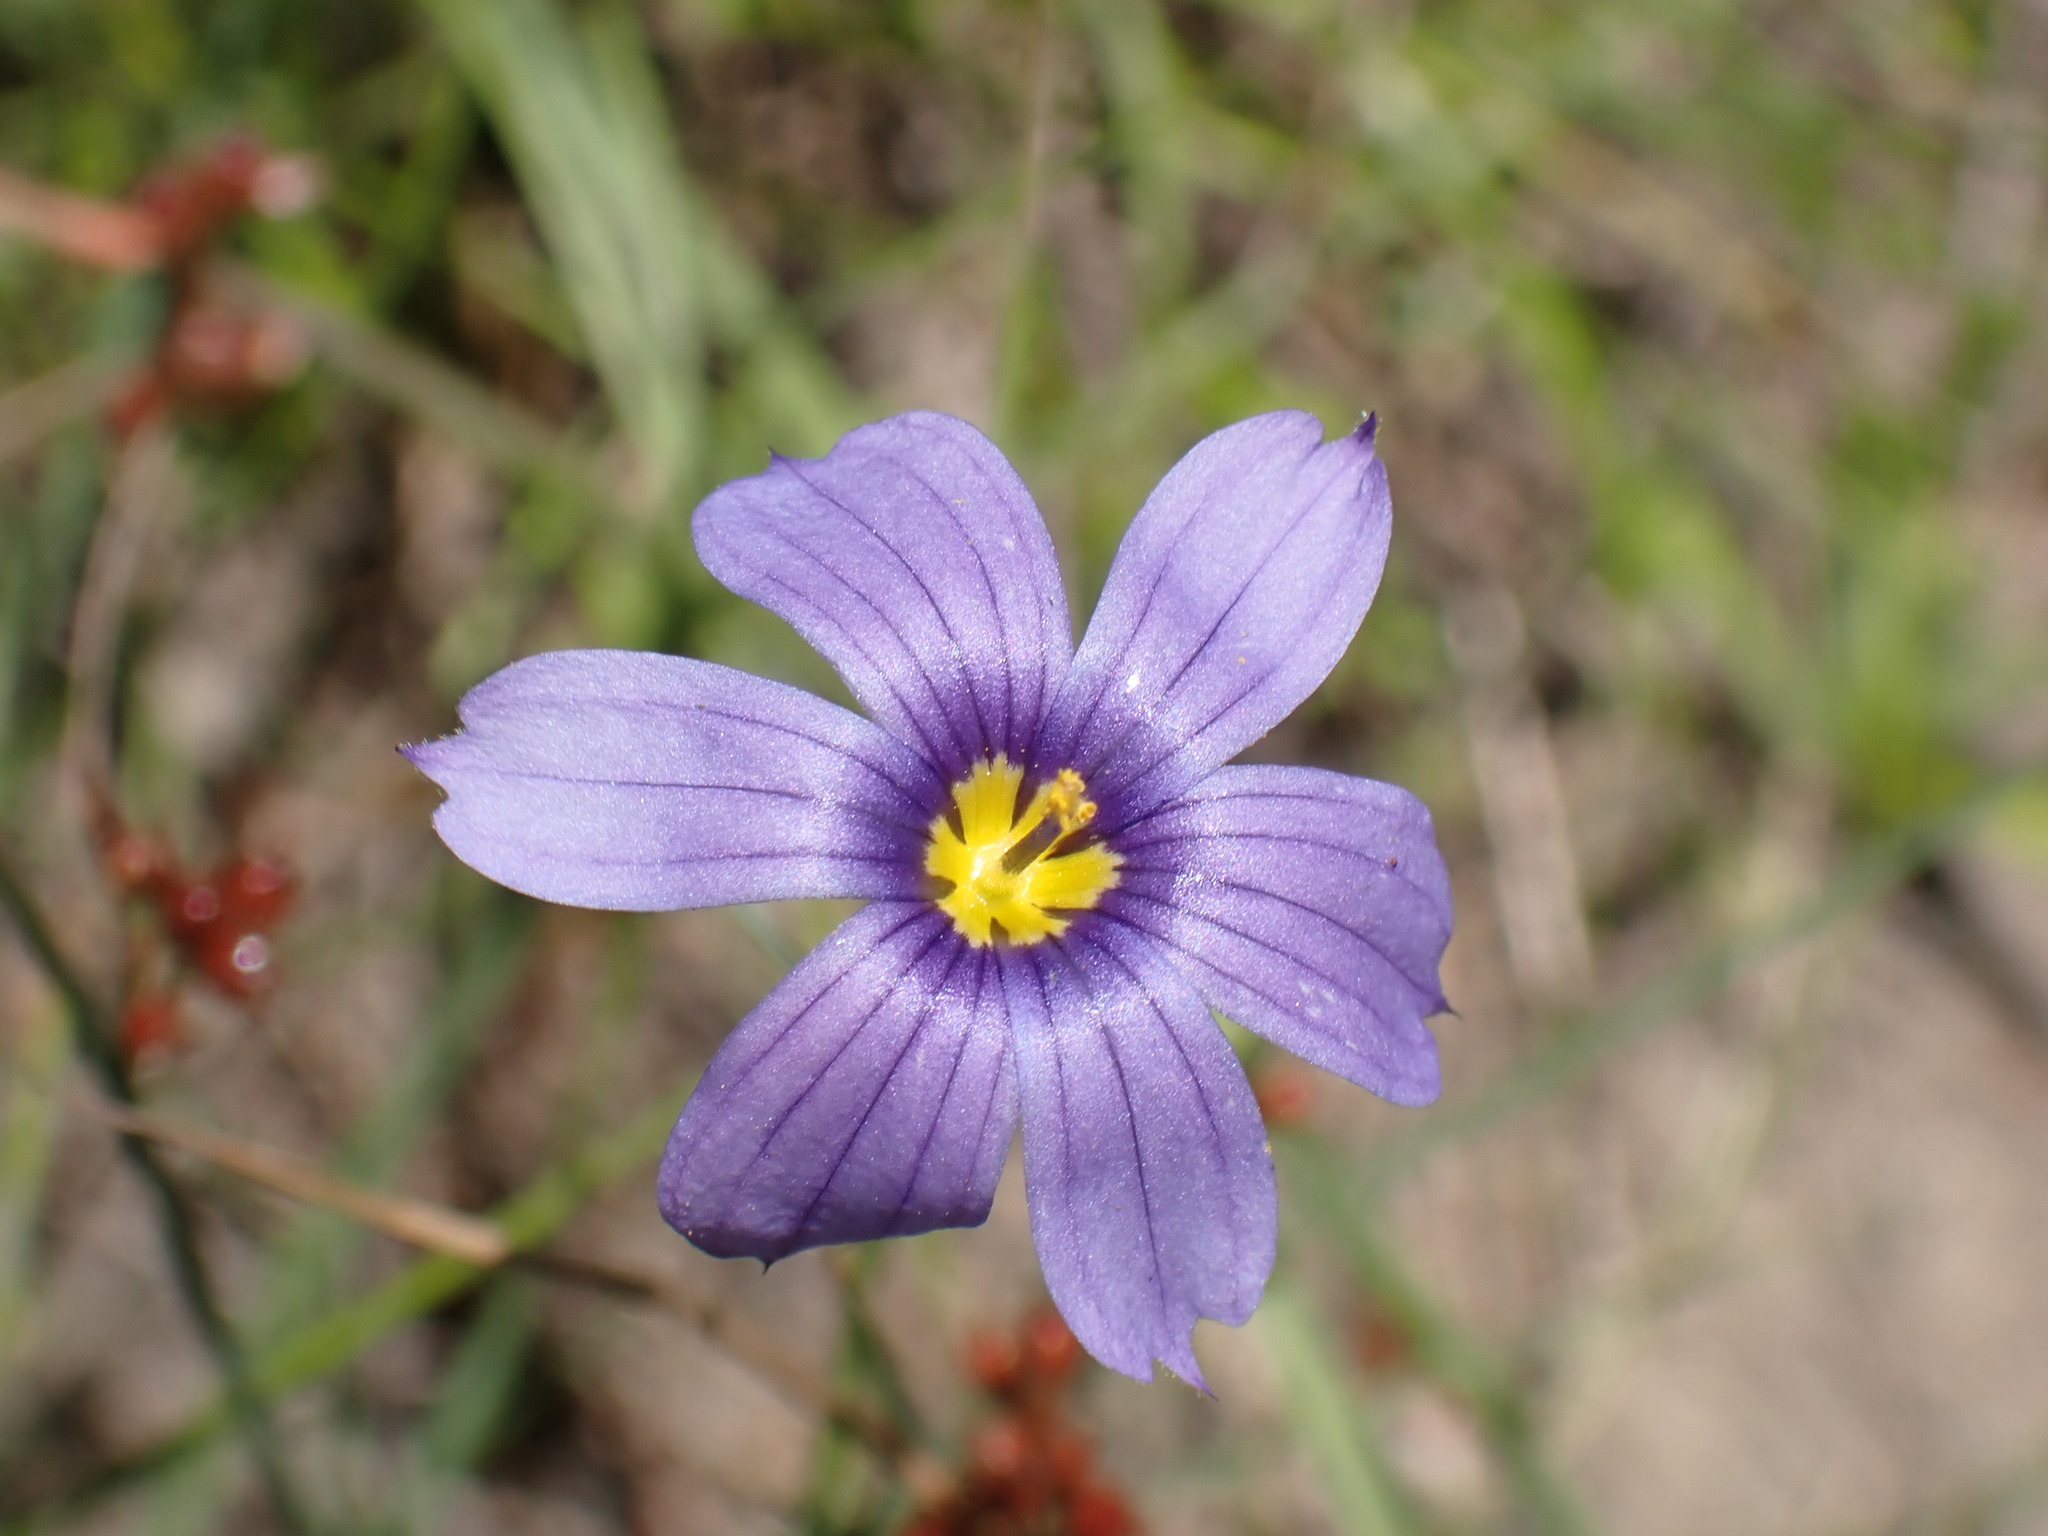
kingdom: Plantae
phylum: Tracheophyta
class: Liliopsida
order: Asparagales
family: Iridaceae
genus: Sisyrinchium
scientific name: Sisyrinchium bellum
